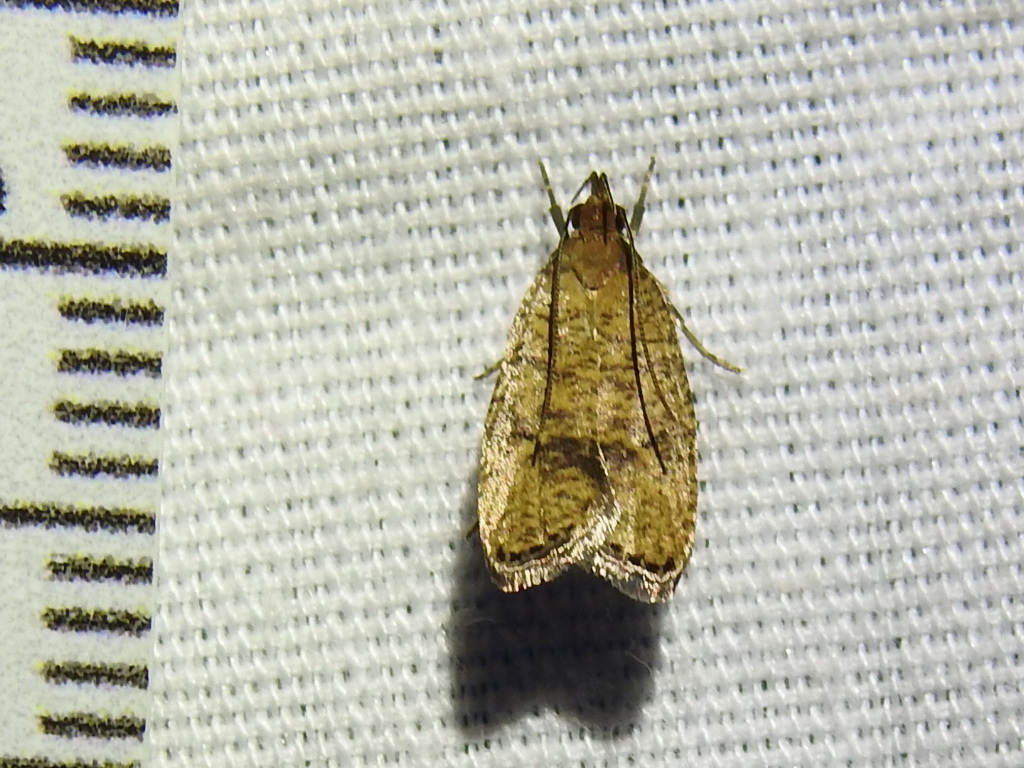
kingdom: Animalia
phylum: Arthropoda
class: Insecta
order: Lepidoptera
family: Depressariidae
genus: Psilocorsis
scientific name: Psilocorsis quercicella
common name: Oak leaftier moth
